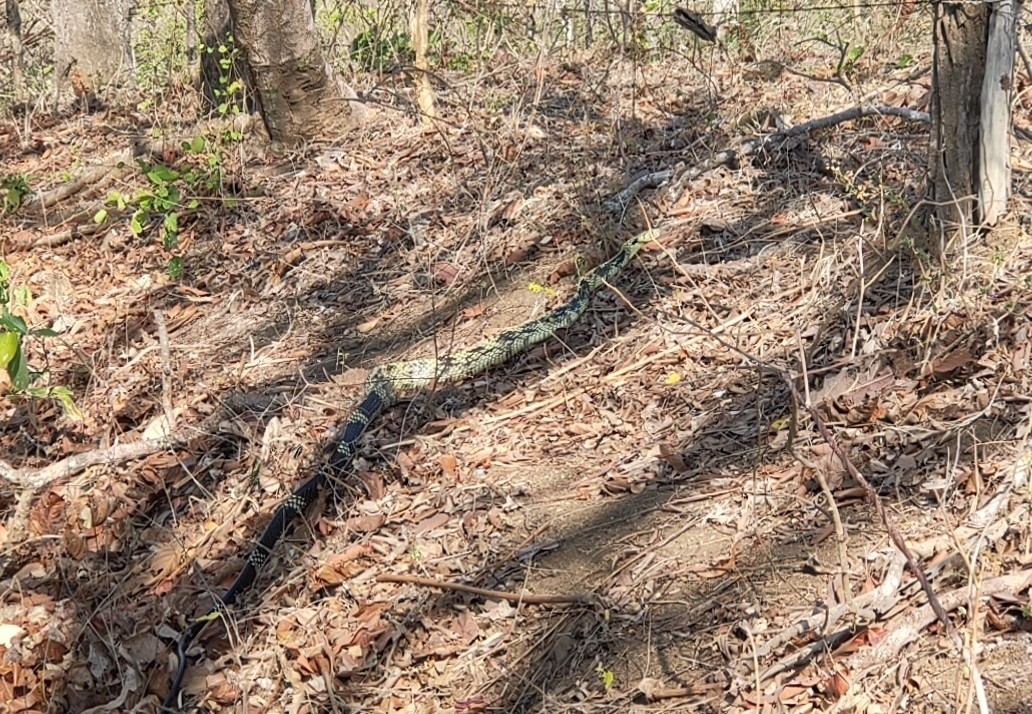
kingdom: Animalia
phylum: Chordata
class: Squamata
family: Colubridae
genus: Spilotes
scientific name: Spilotes pullatus
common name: Chicken snake
